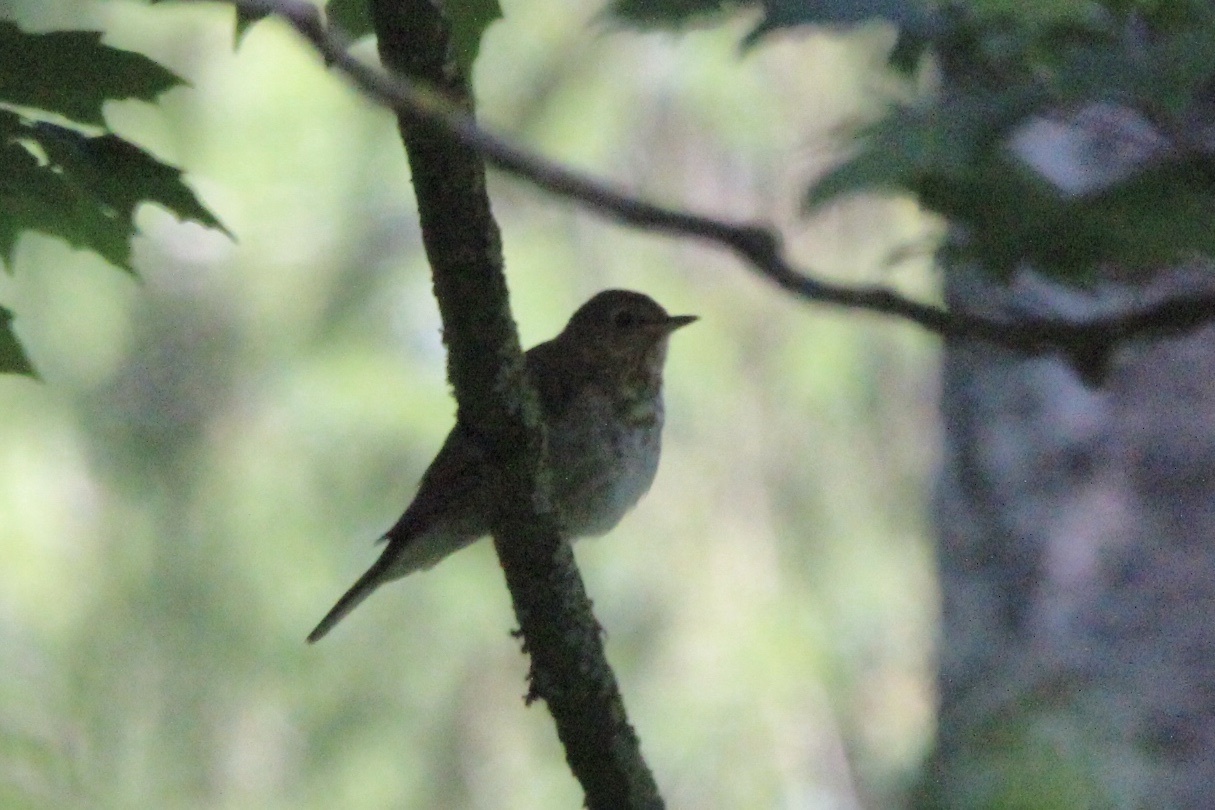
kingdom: Animalia
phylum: Chordata
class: Aves
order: Passeriformes
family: Turdidae
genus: Catharus
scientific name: Catharus ustulatus
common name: Swainson's thrush
